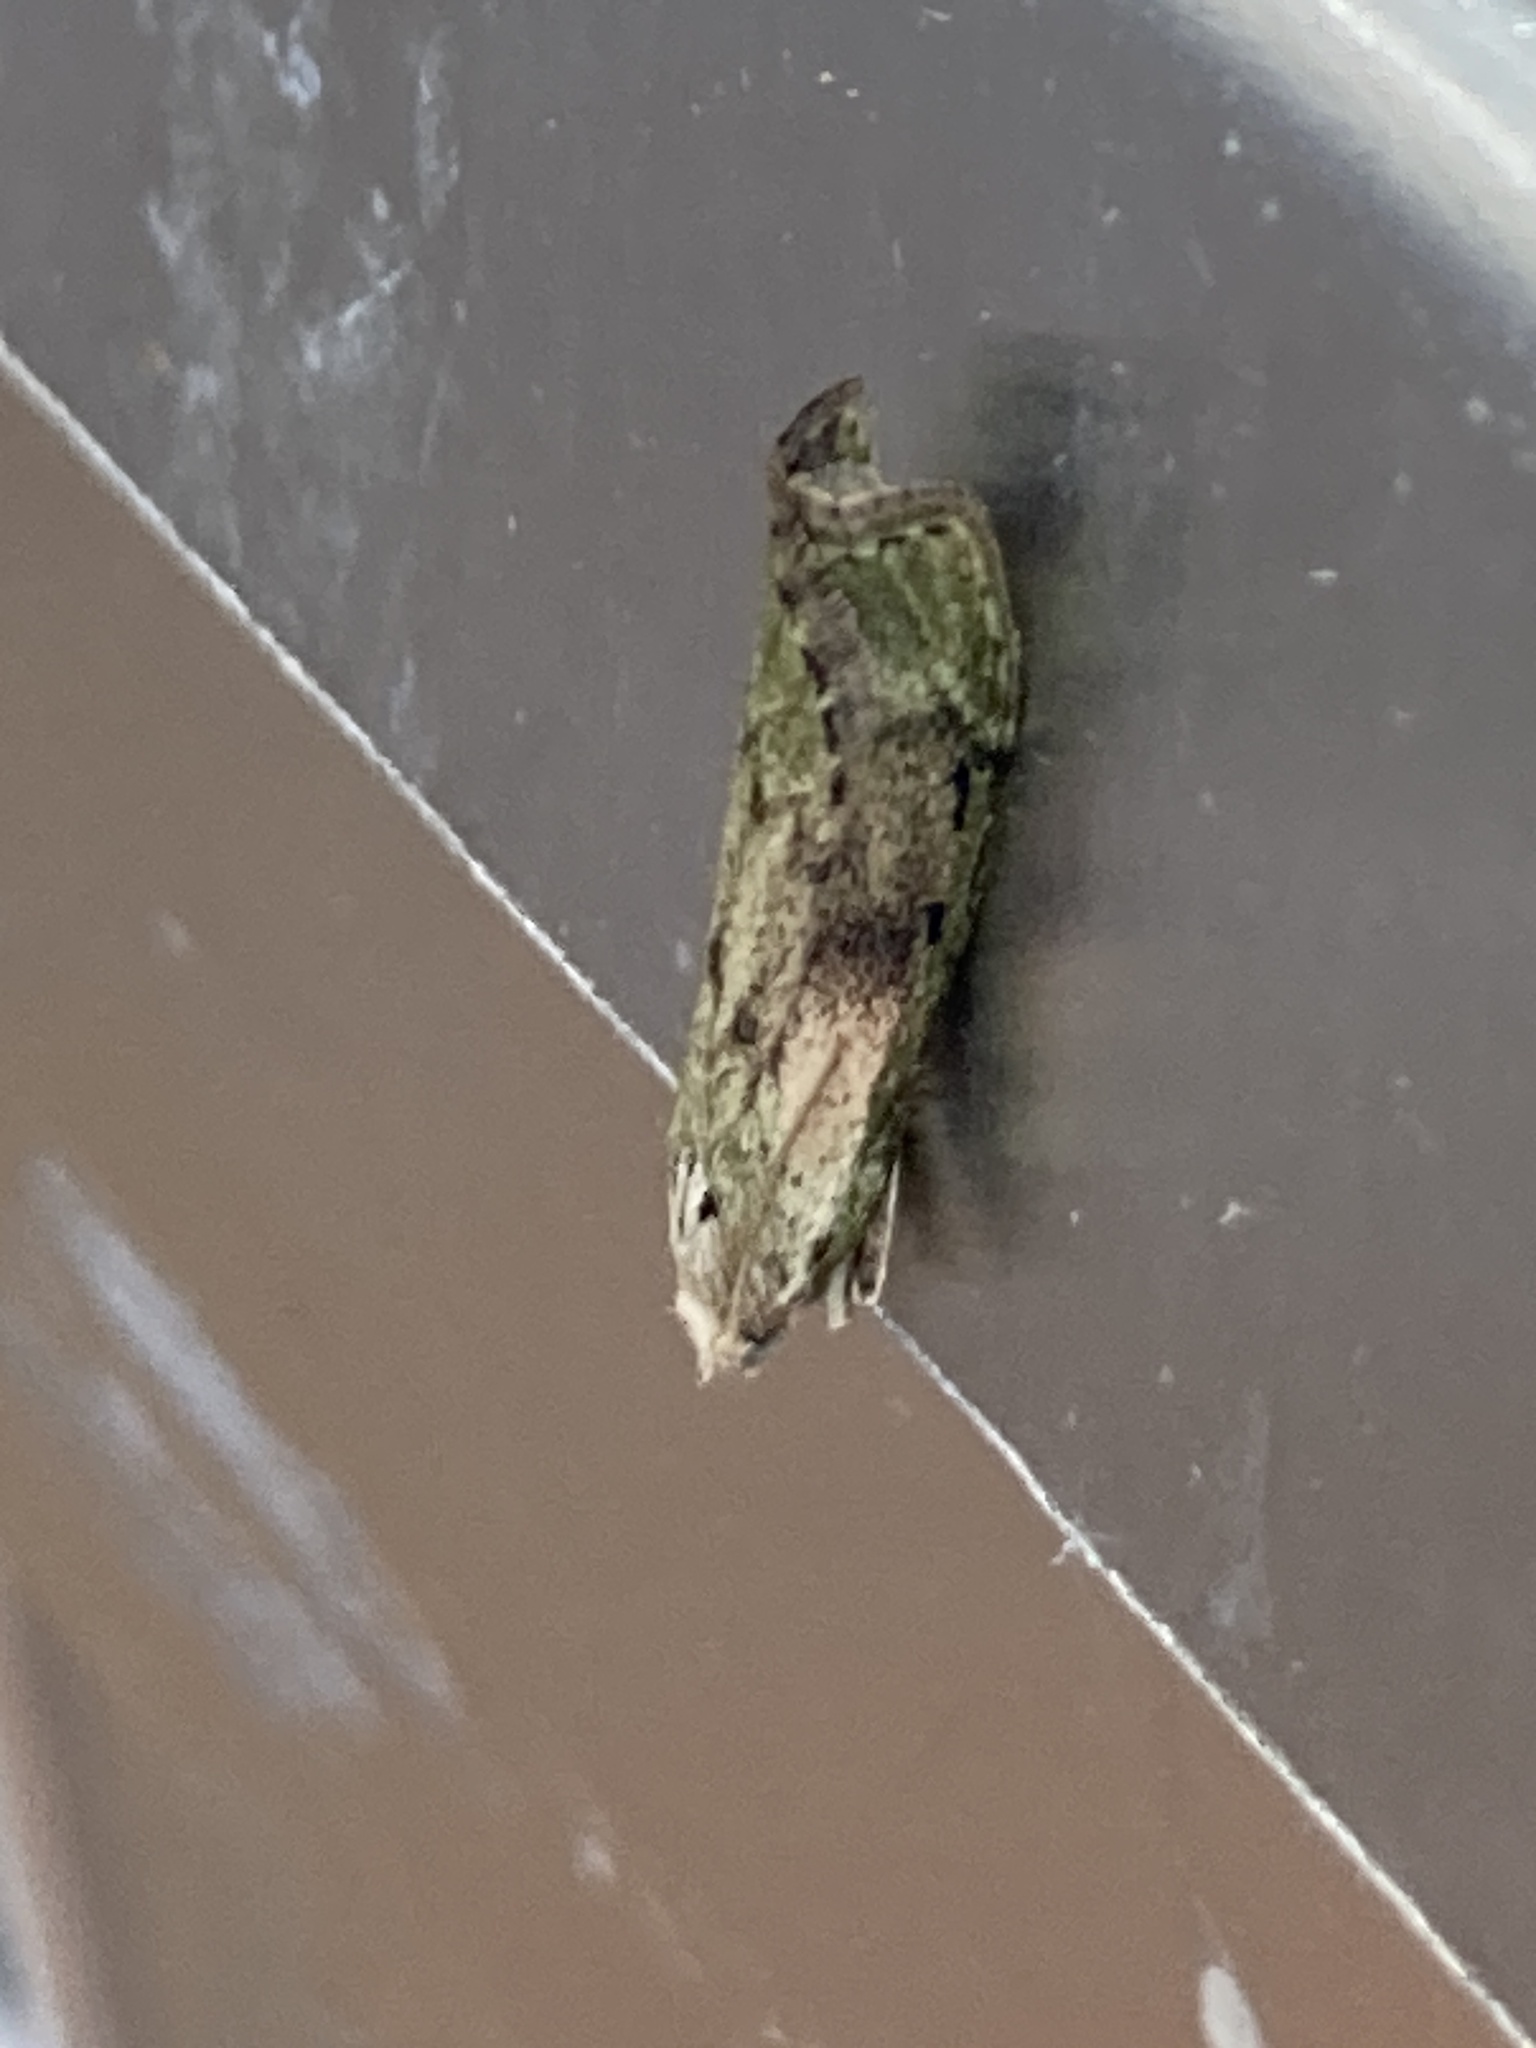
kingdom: Animalia
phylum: Arthropoda
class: Insecta
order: Lepidoptera
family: Pyralidae
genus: Aphomia
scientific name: Aphomia sociella
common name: Bee moth
